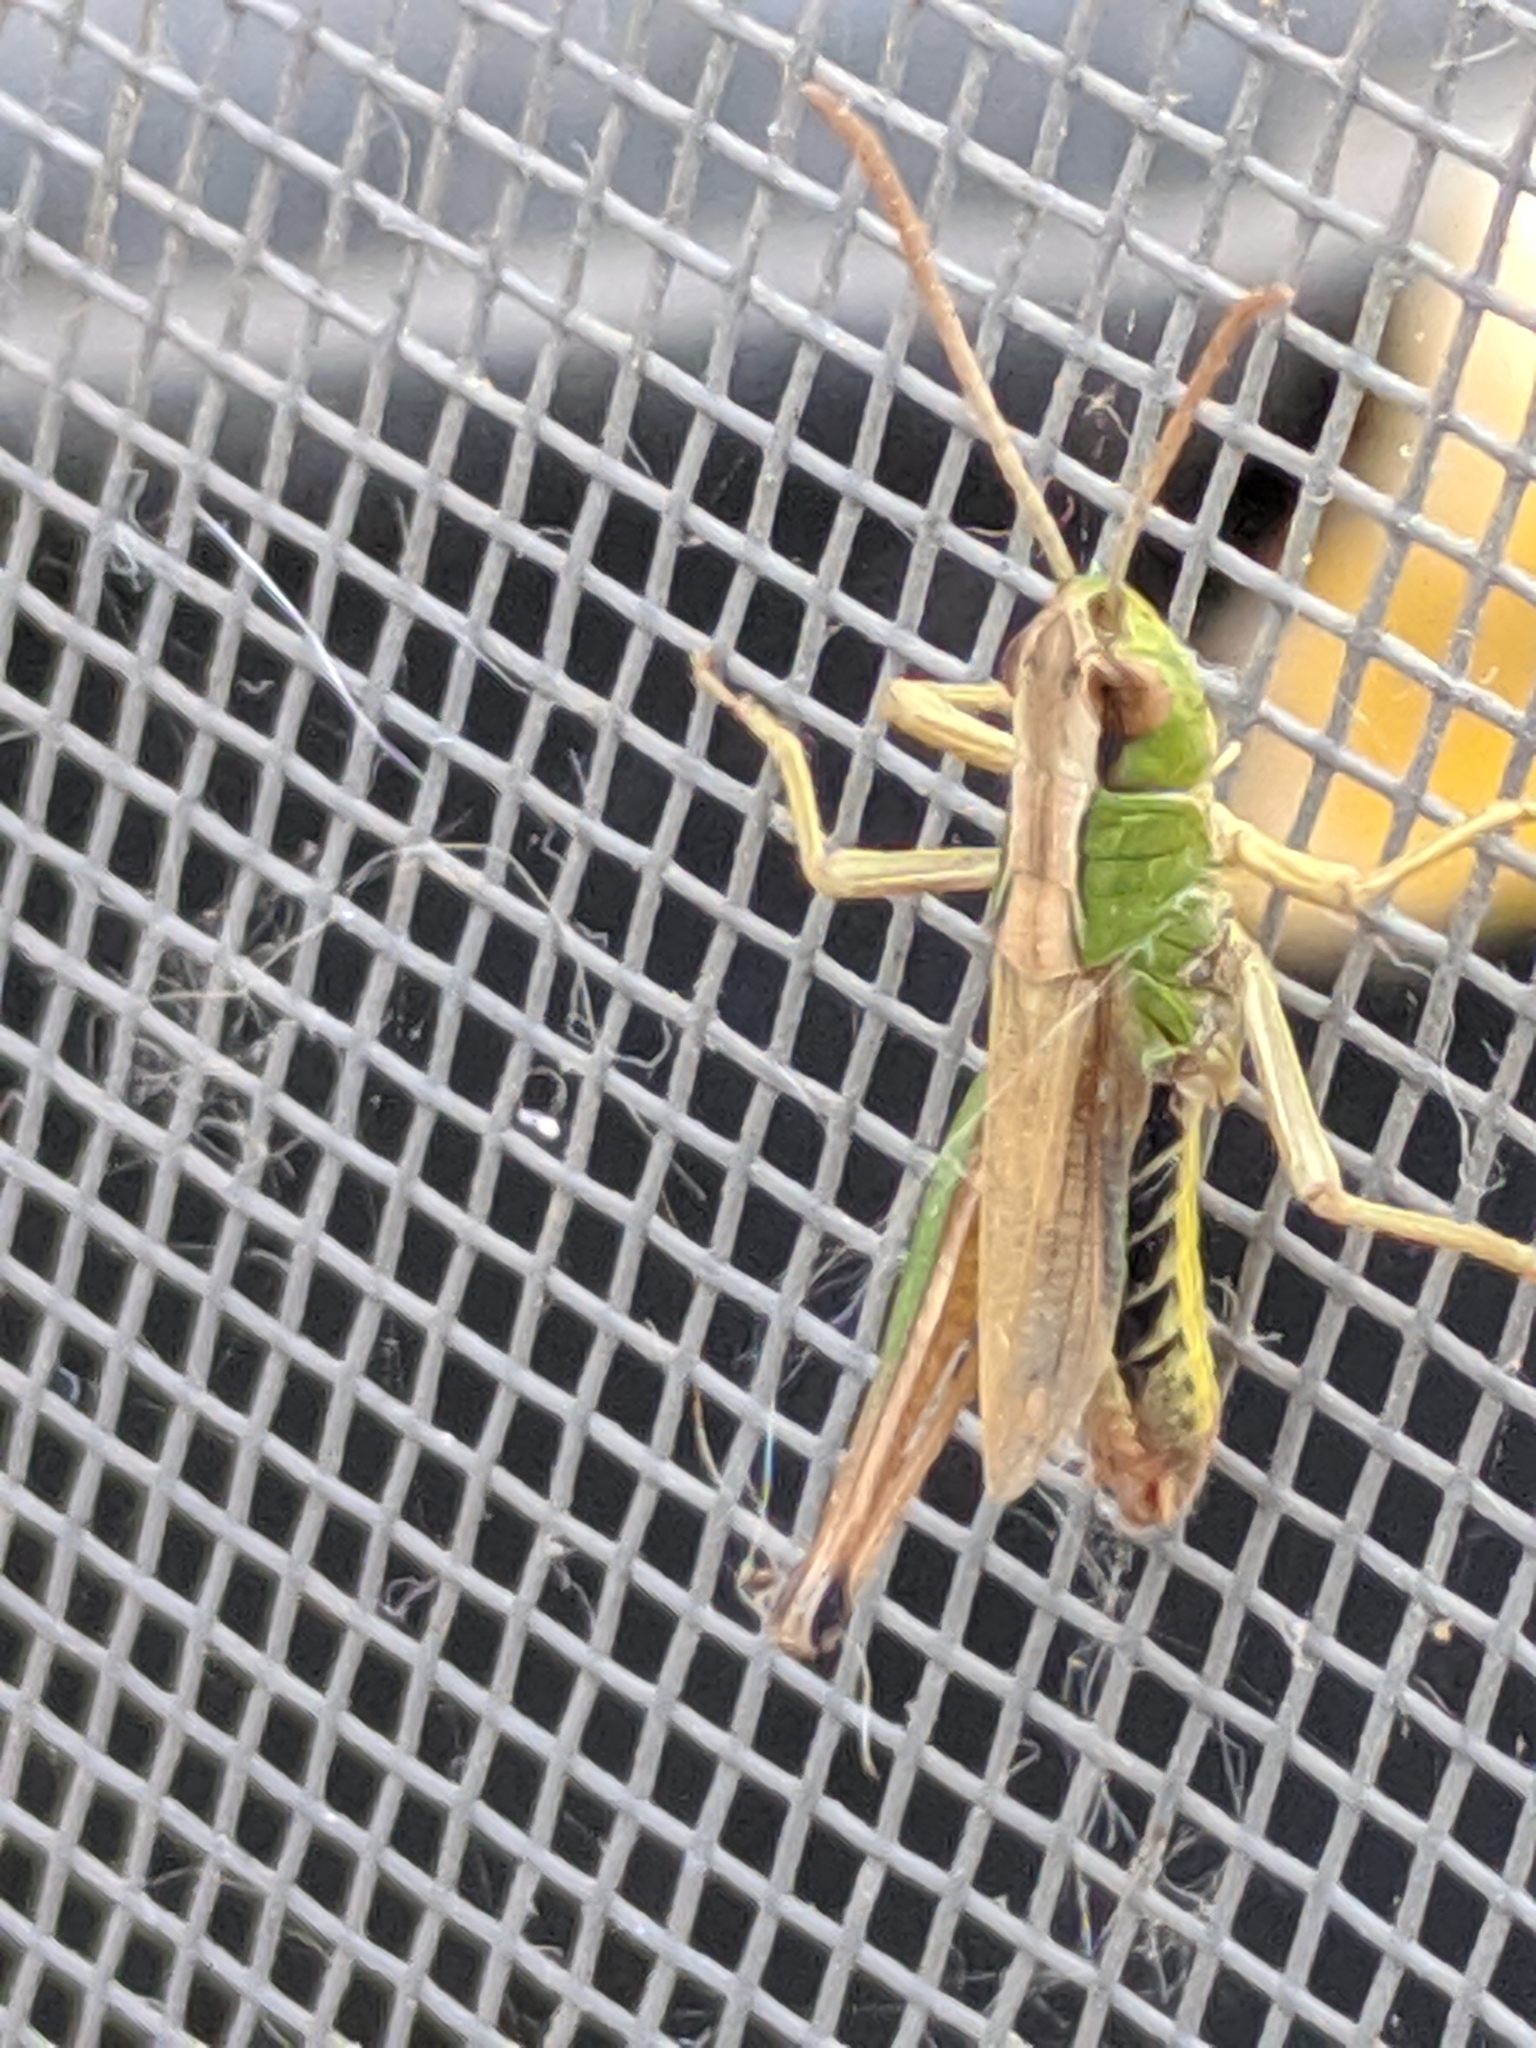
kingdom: Animalia
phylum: Arthropoda
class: Insecta
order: Orthoptera
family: Acrididae
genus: Pseudochorthippus
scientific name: Pseudochorthippus parallelus
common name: Meadow grasshopper
